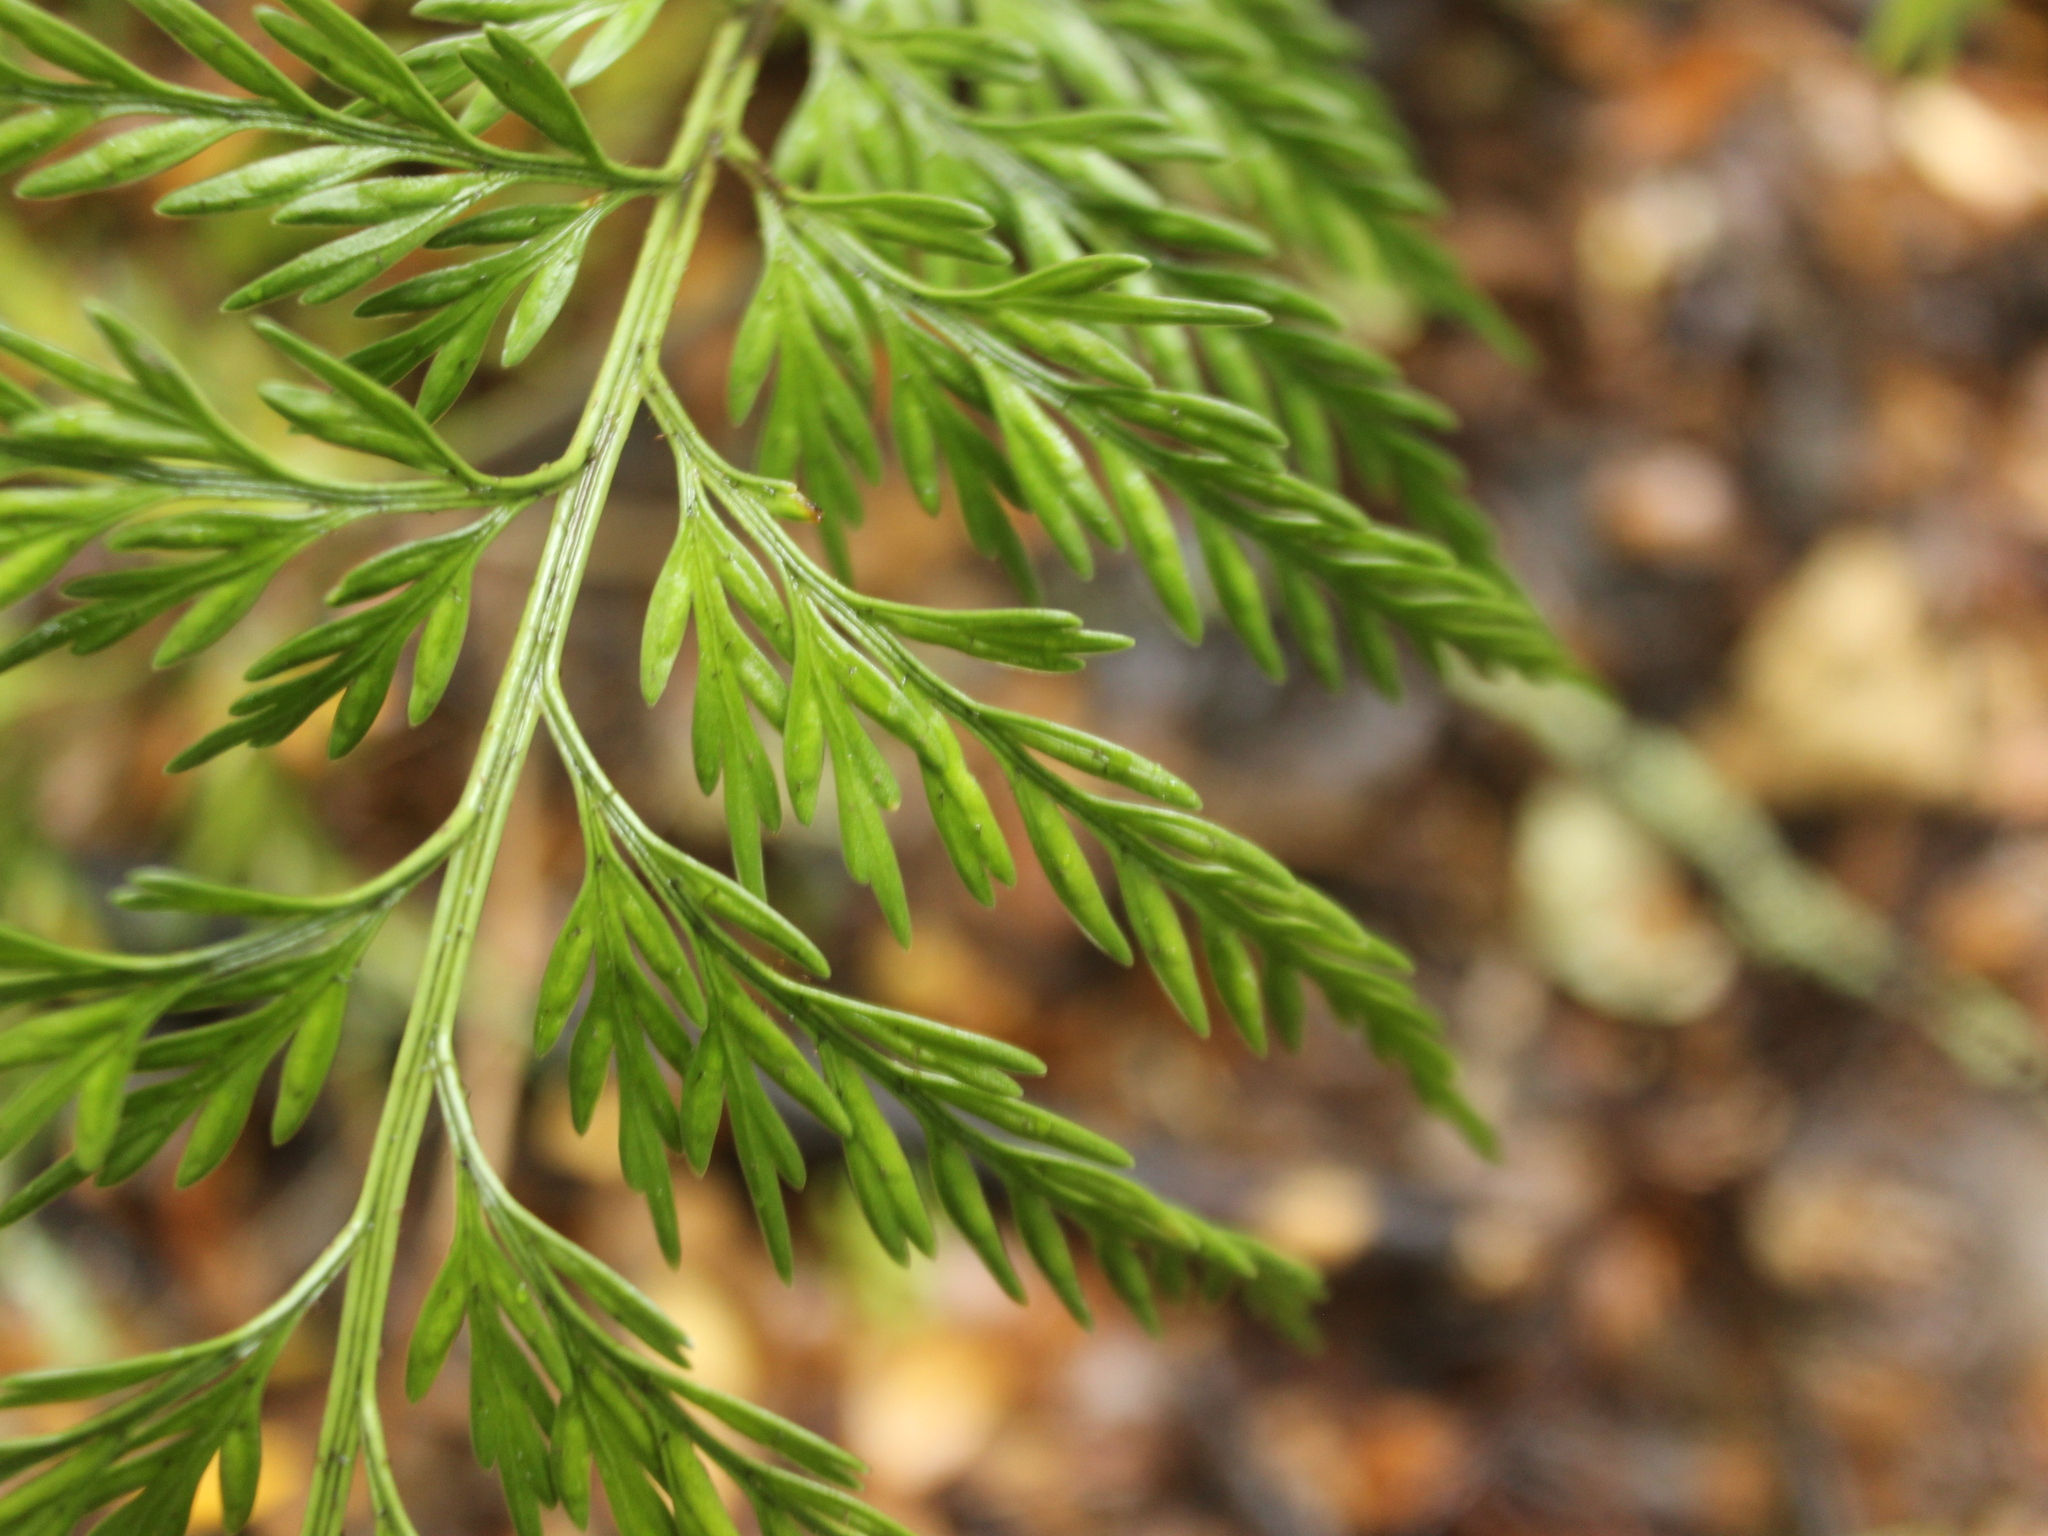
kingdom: Plantae
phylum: Tracheophyta
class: Polypodiopsida
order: Polypodiales
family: Aspleniaceae
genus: Asplenium
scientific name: Asplenium appendiculatum
